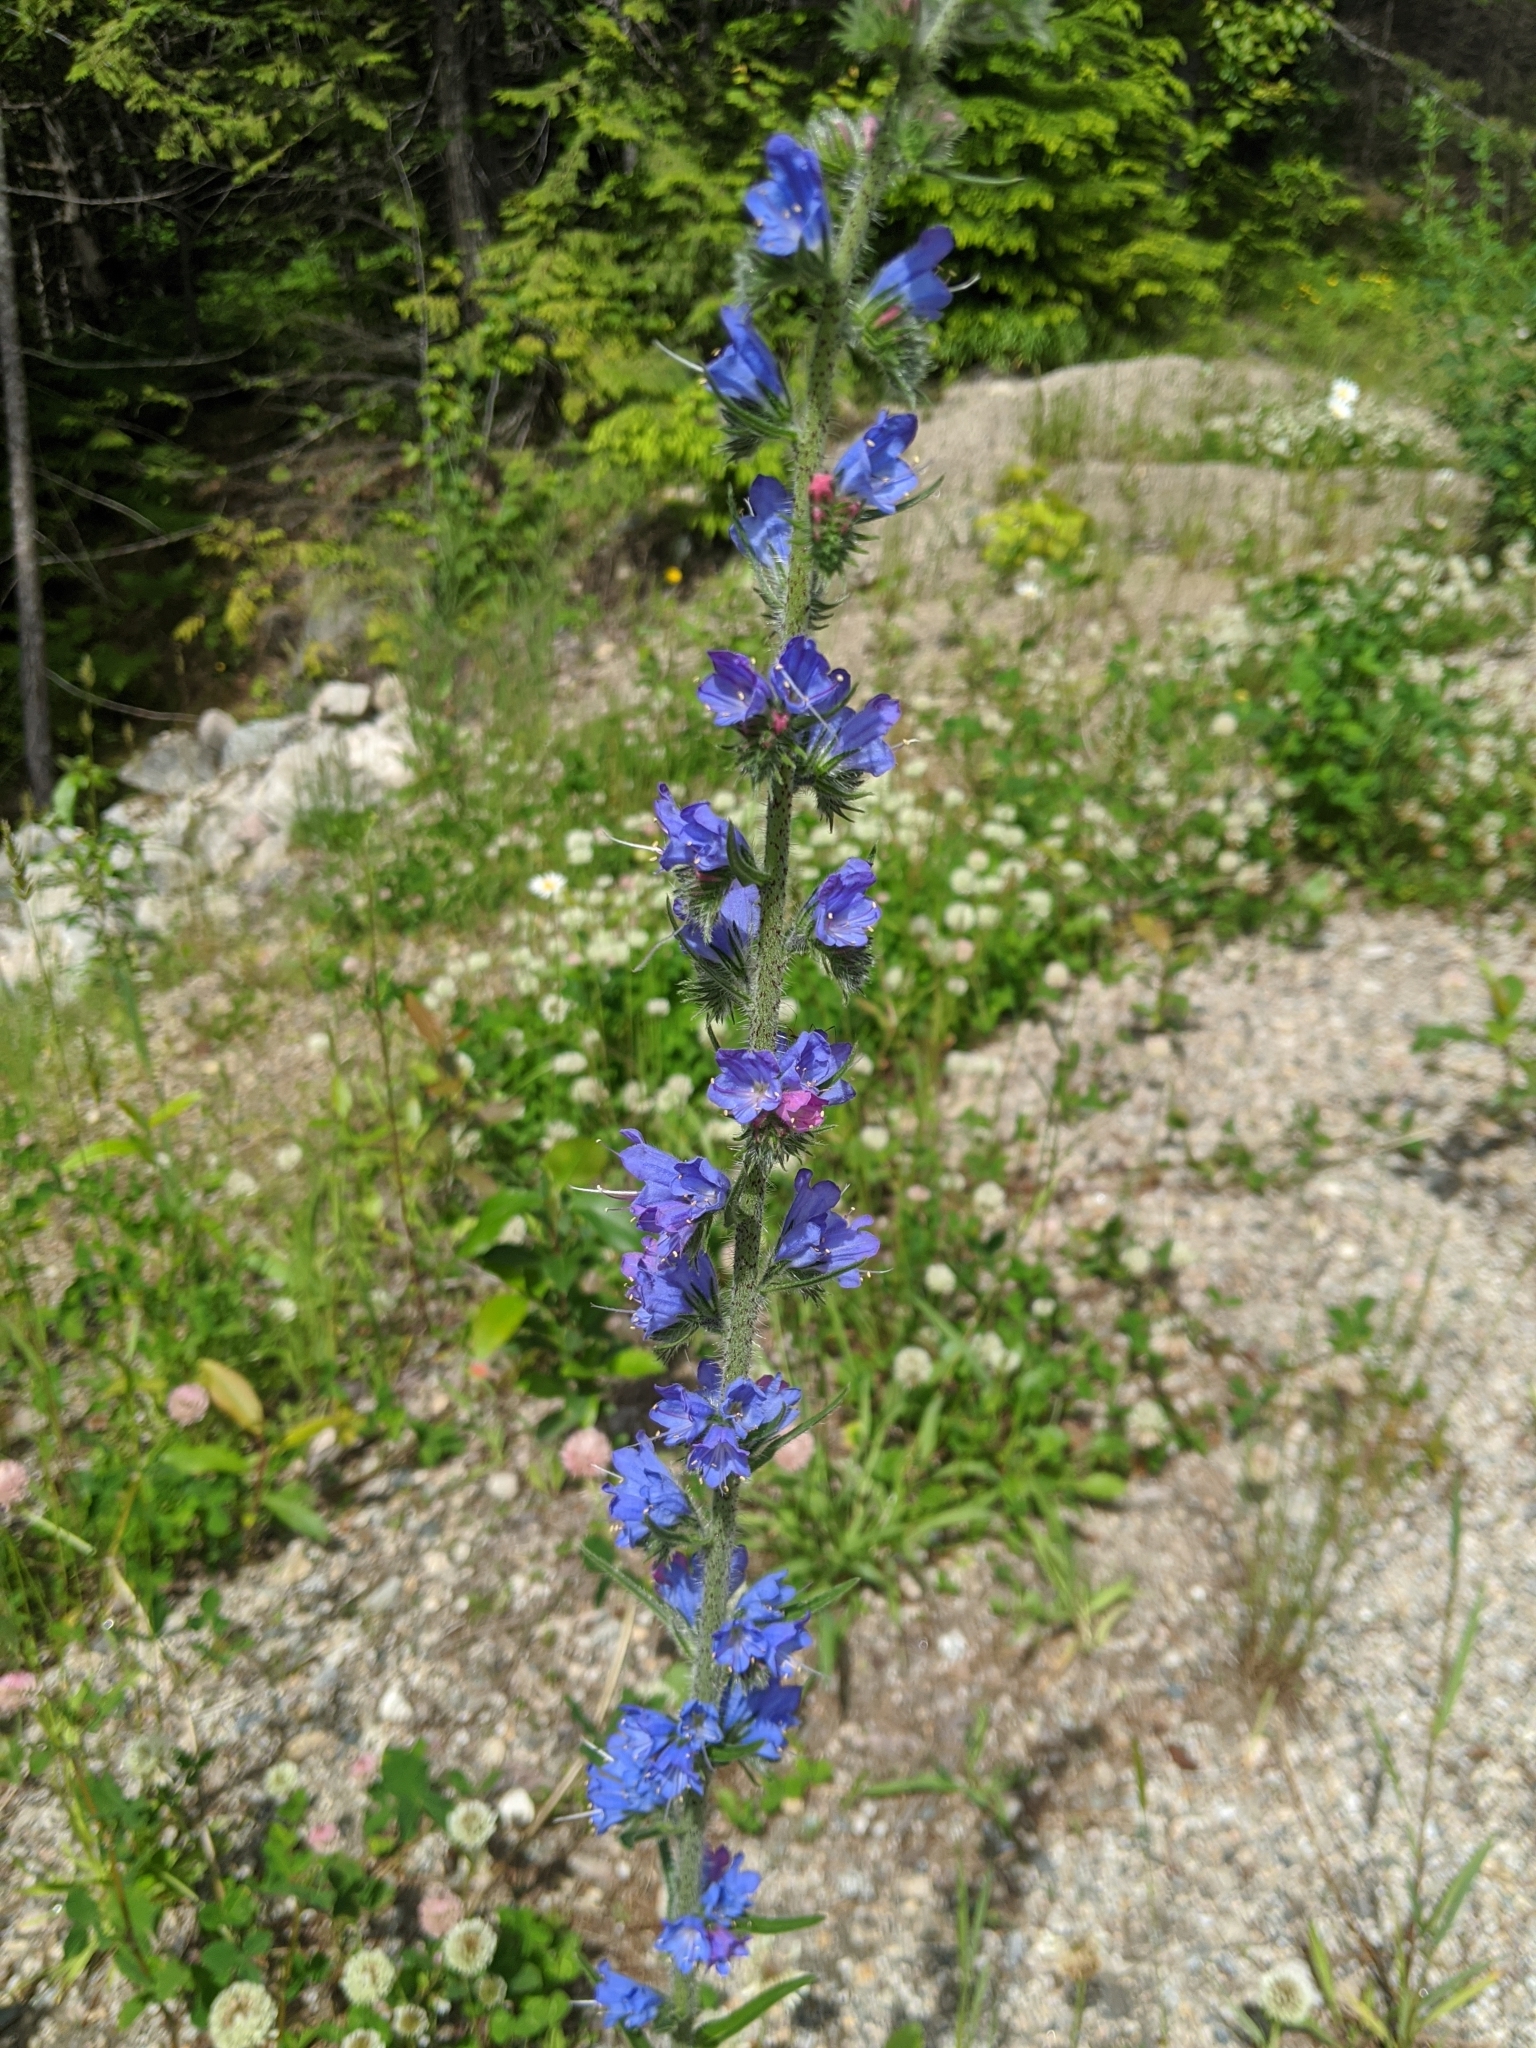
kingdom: Plantae
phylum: Tracheophyta
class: Magnoliopsida
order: Boraginales
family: Boraginaceae
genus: Echium
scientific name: Echium vulgare
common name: Common viper's bugloss
